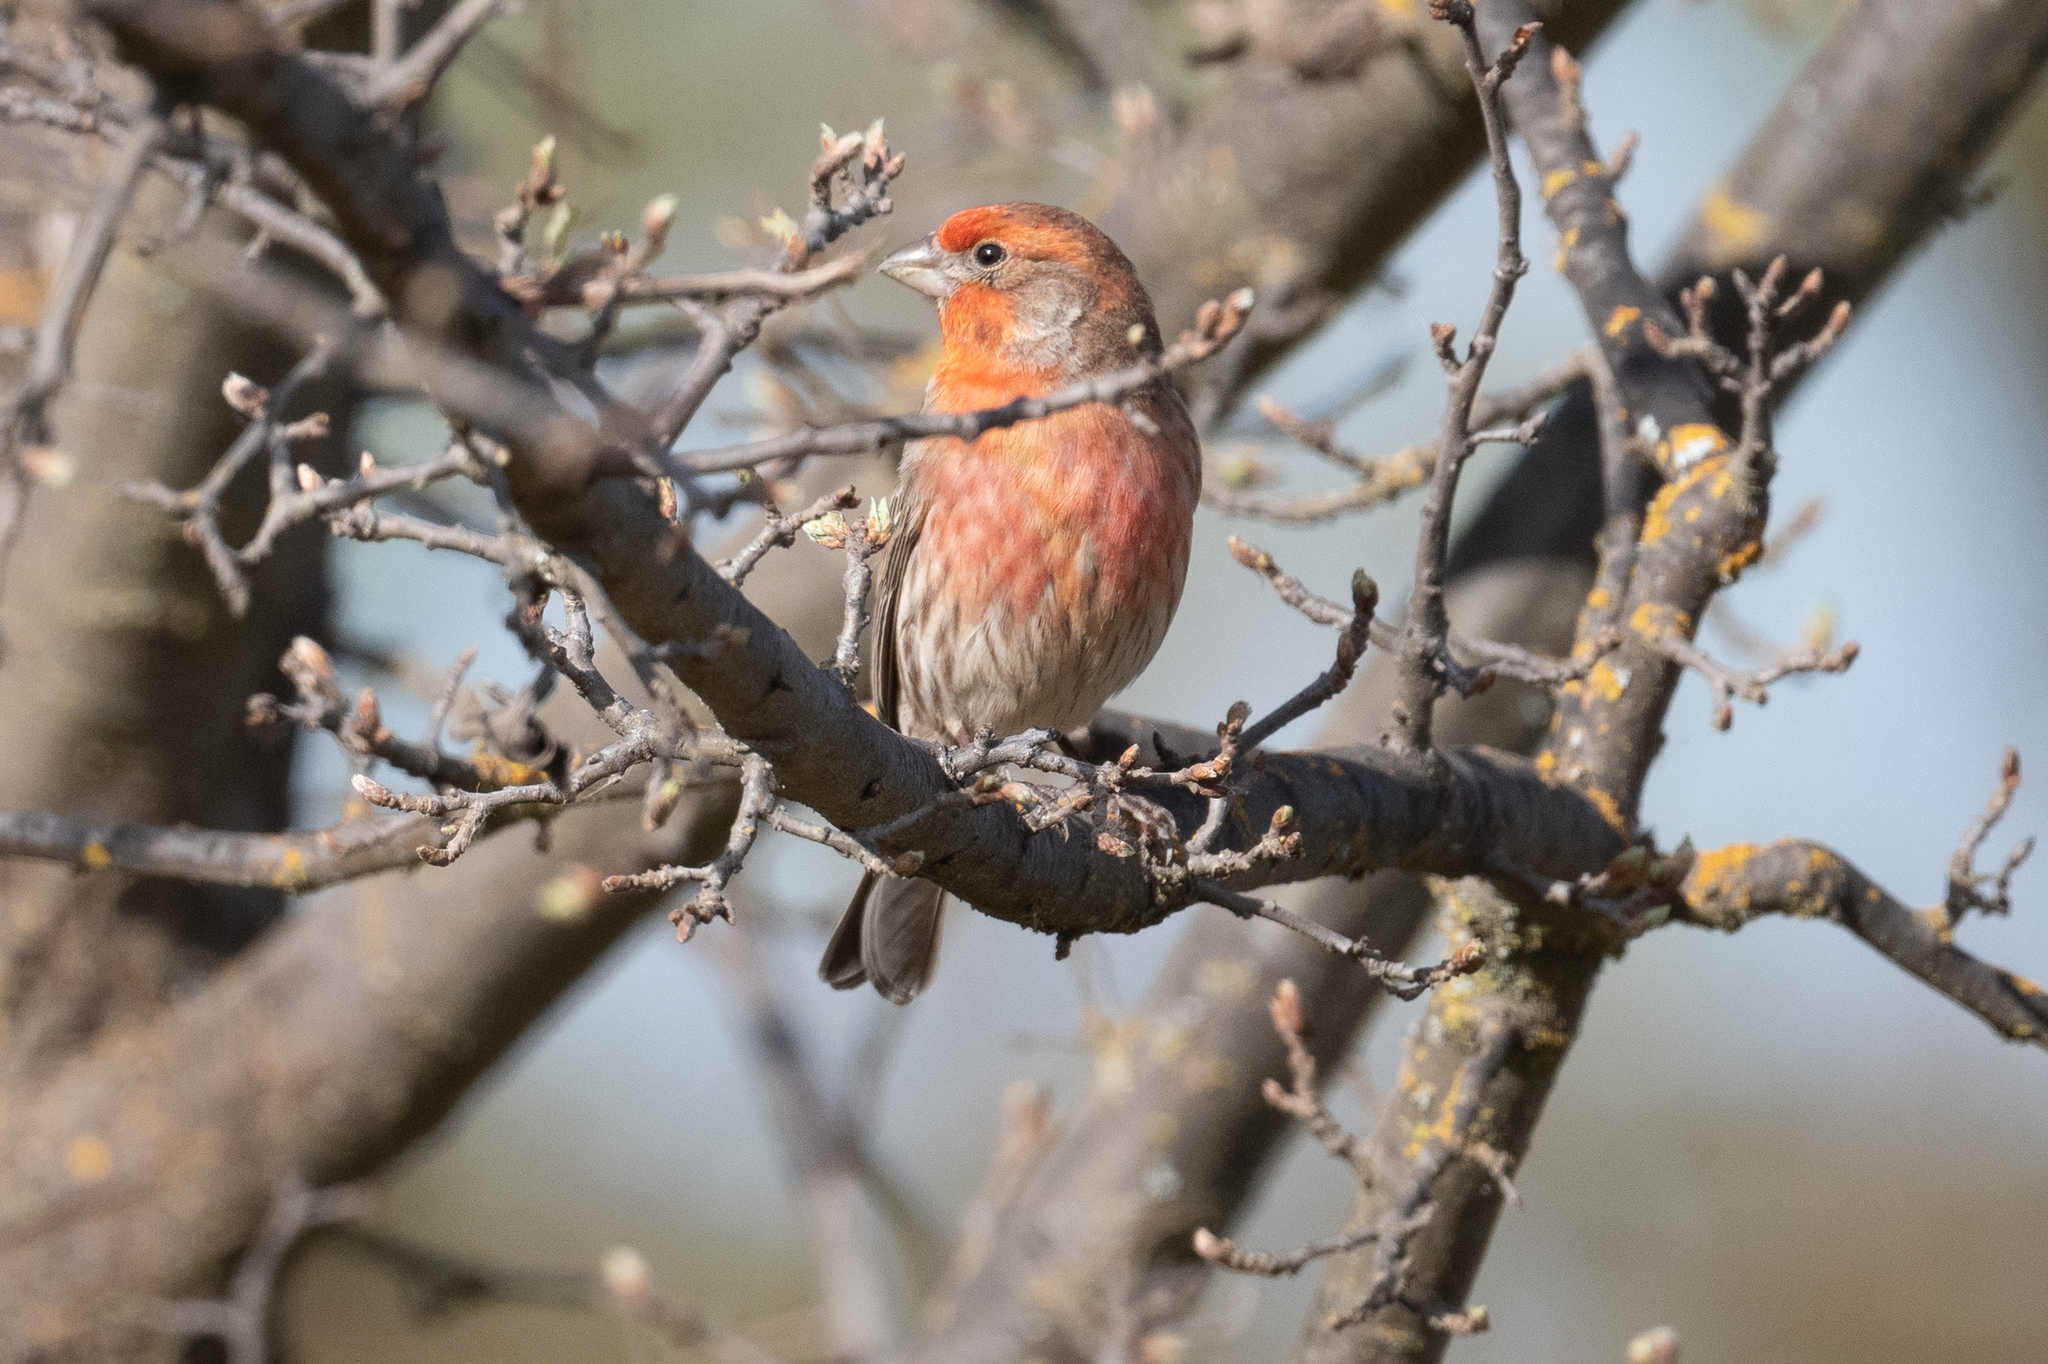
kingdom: Animalia
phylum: Chordata
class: Aves
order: Passeriformes
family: Fringillidae
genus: Haemorhous
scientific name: Haemorhous mexicanus
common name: House finch
